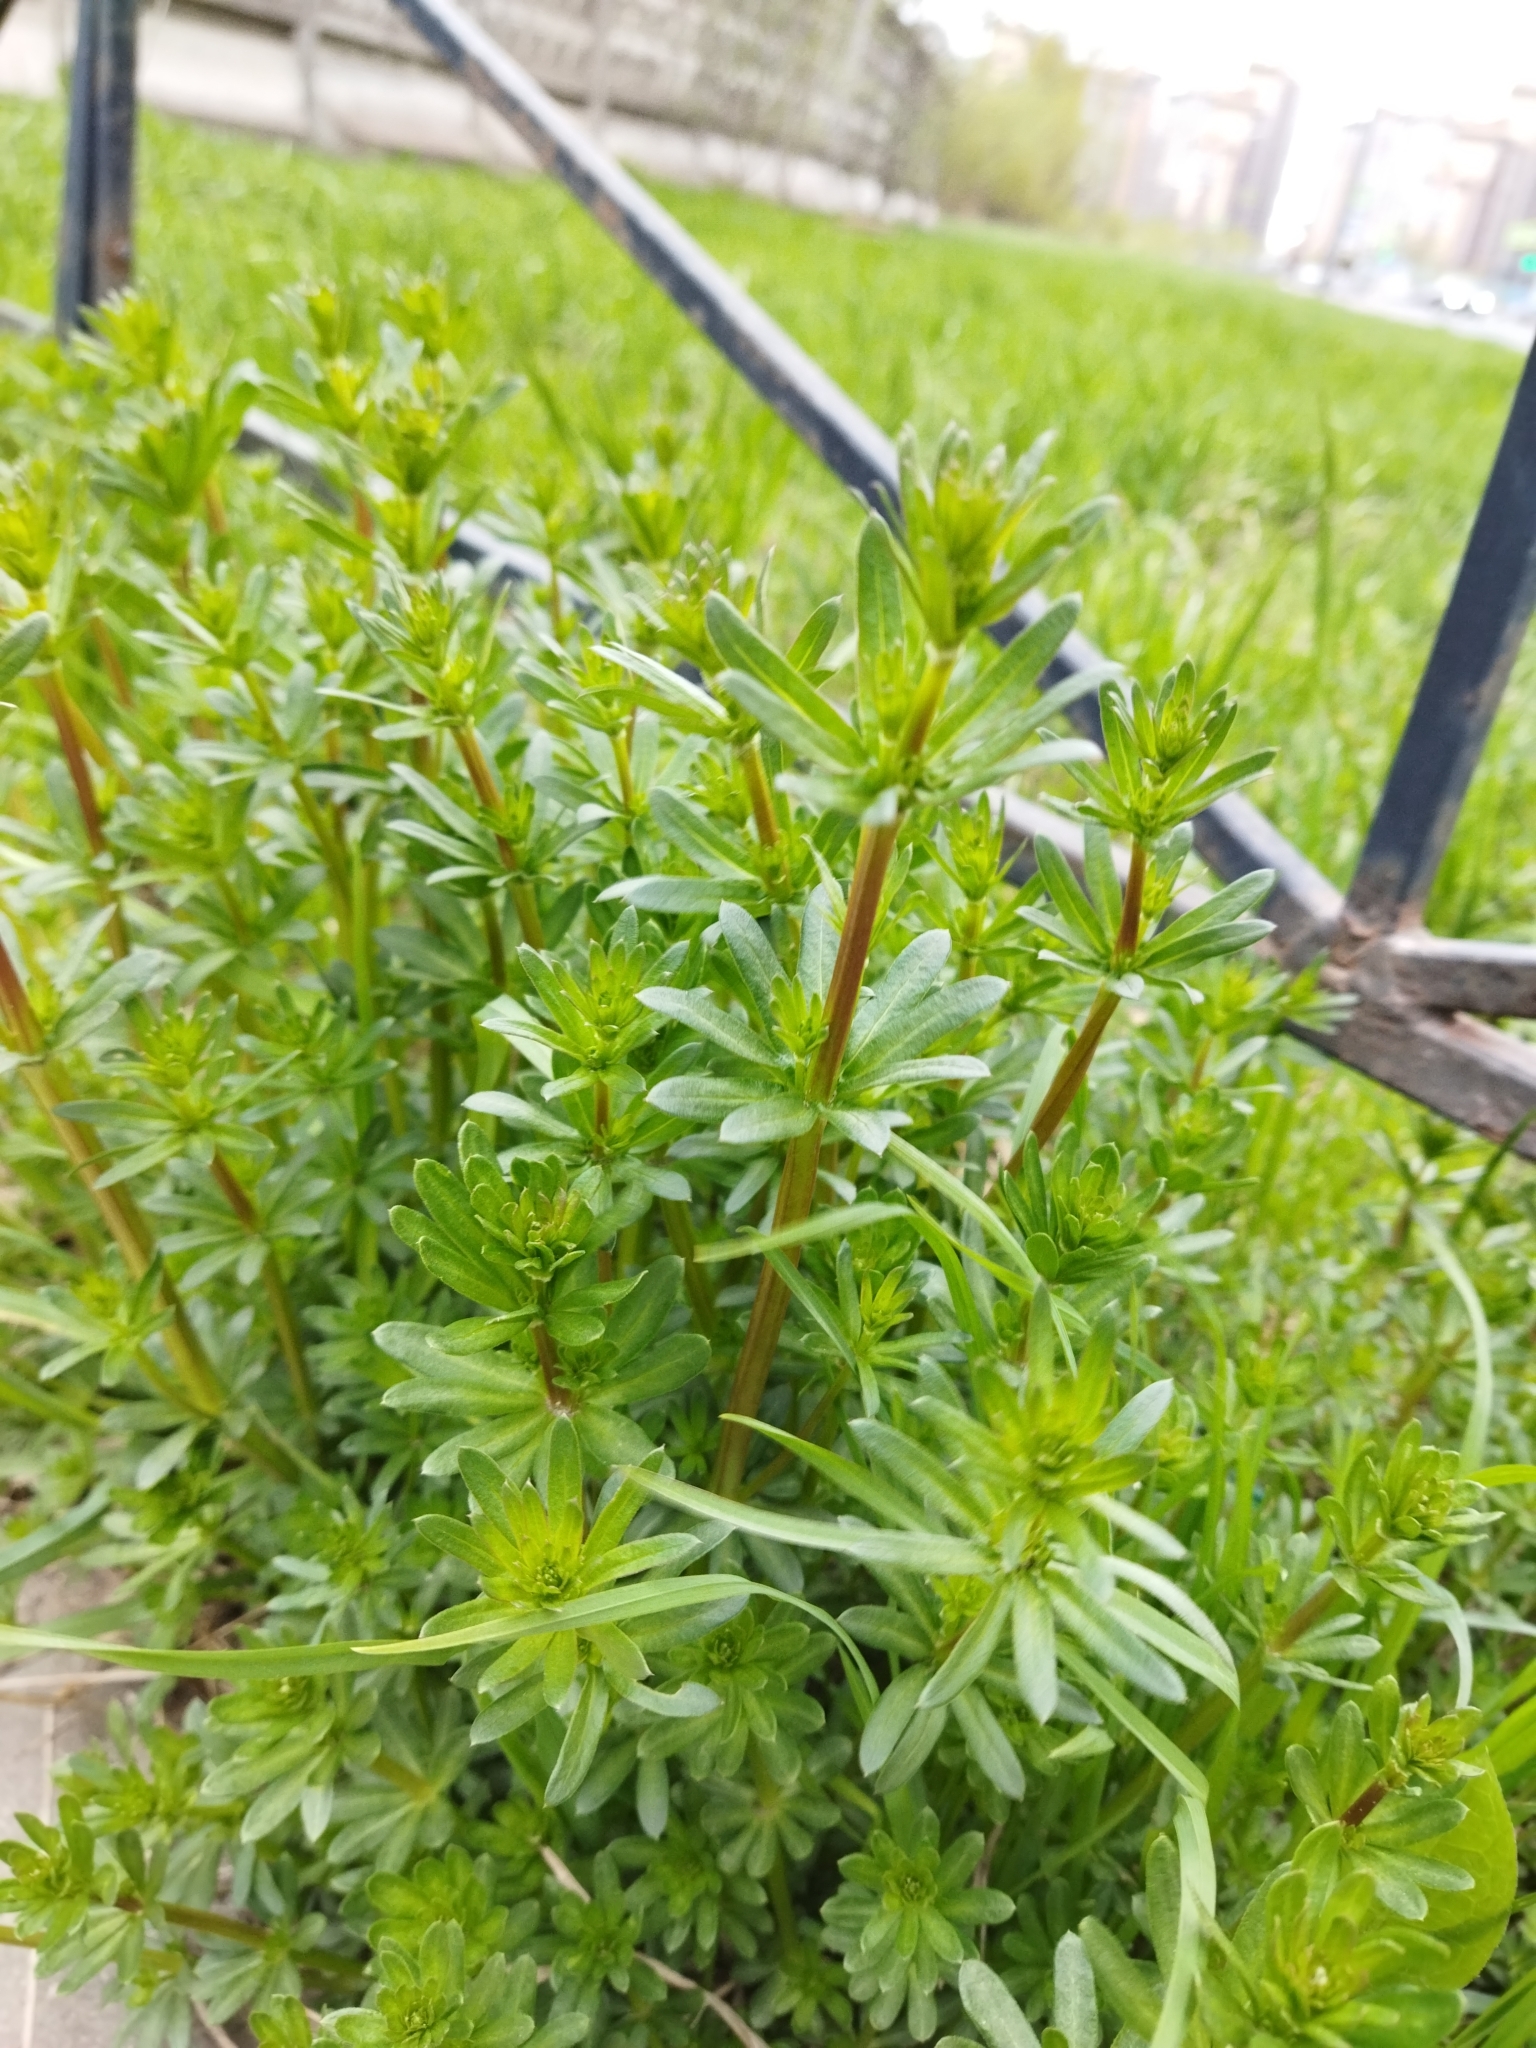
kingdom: Plantae
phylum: Tracheophyta
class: Magnoliopsida
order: Gentianales
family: Rubiaceae
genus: Galium
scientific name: Galium mollugo
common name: Hedge bedstraw
